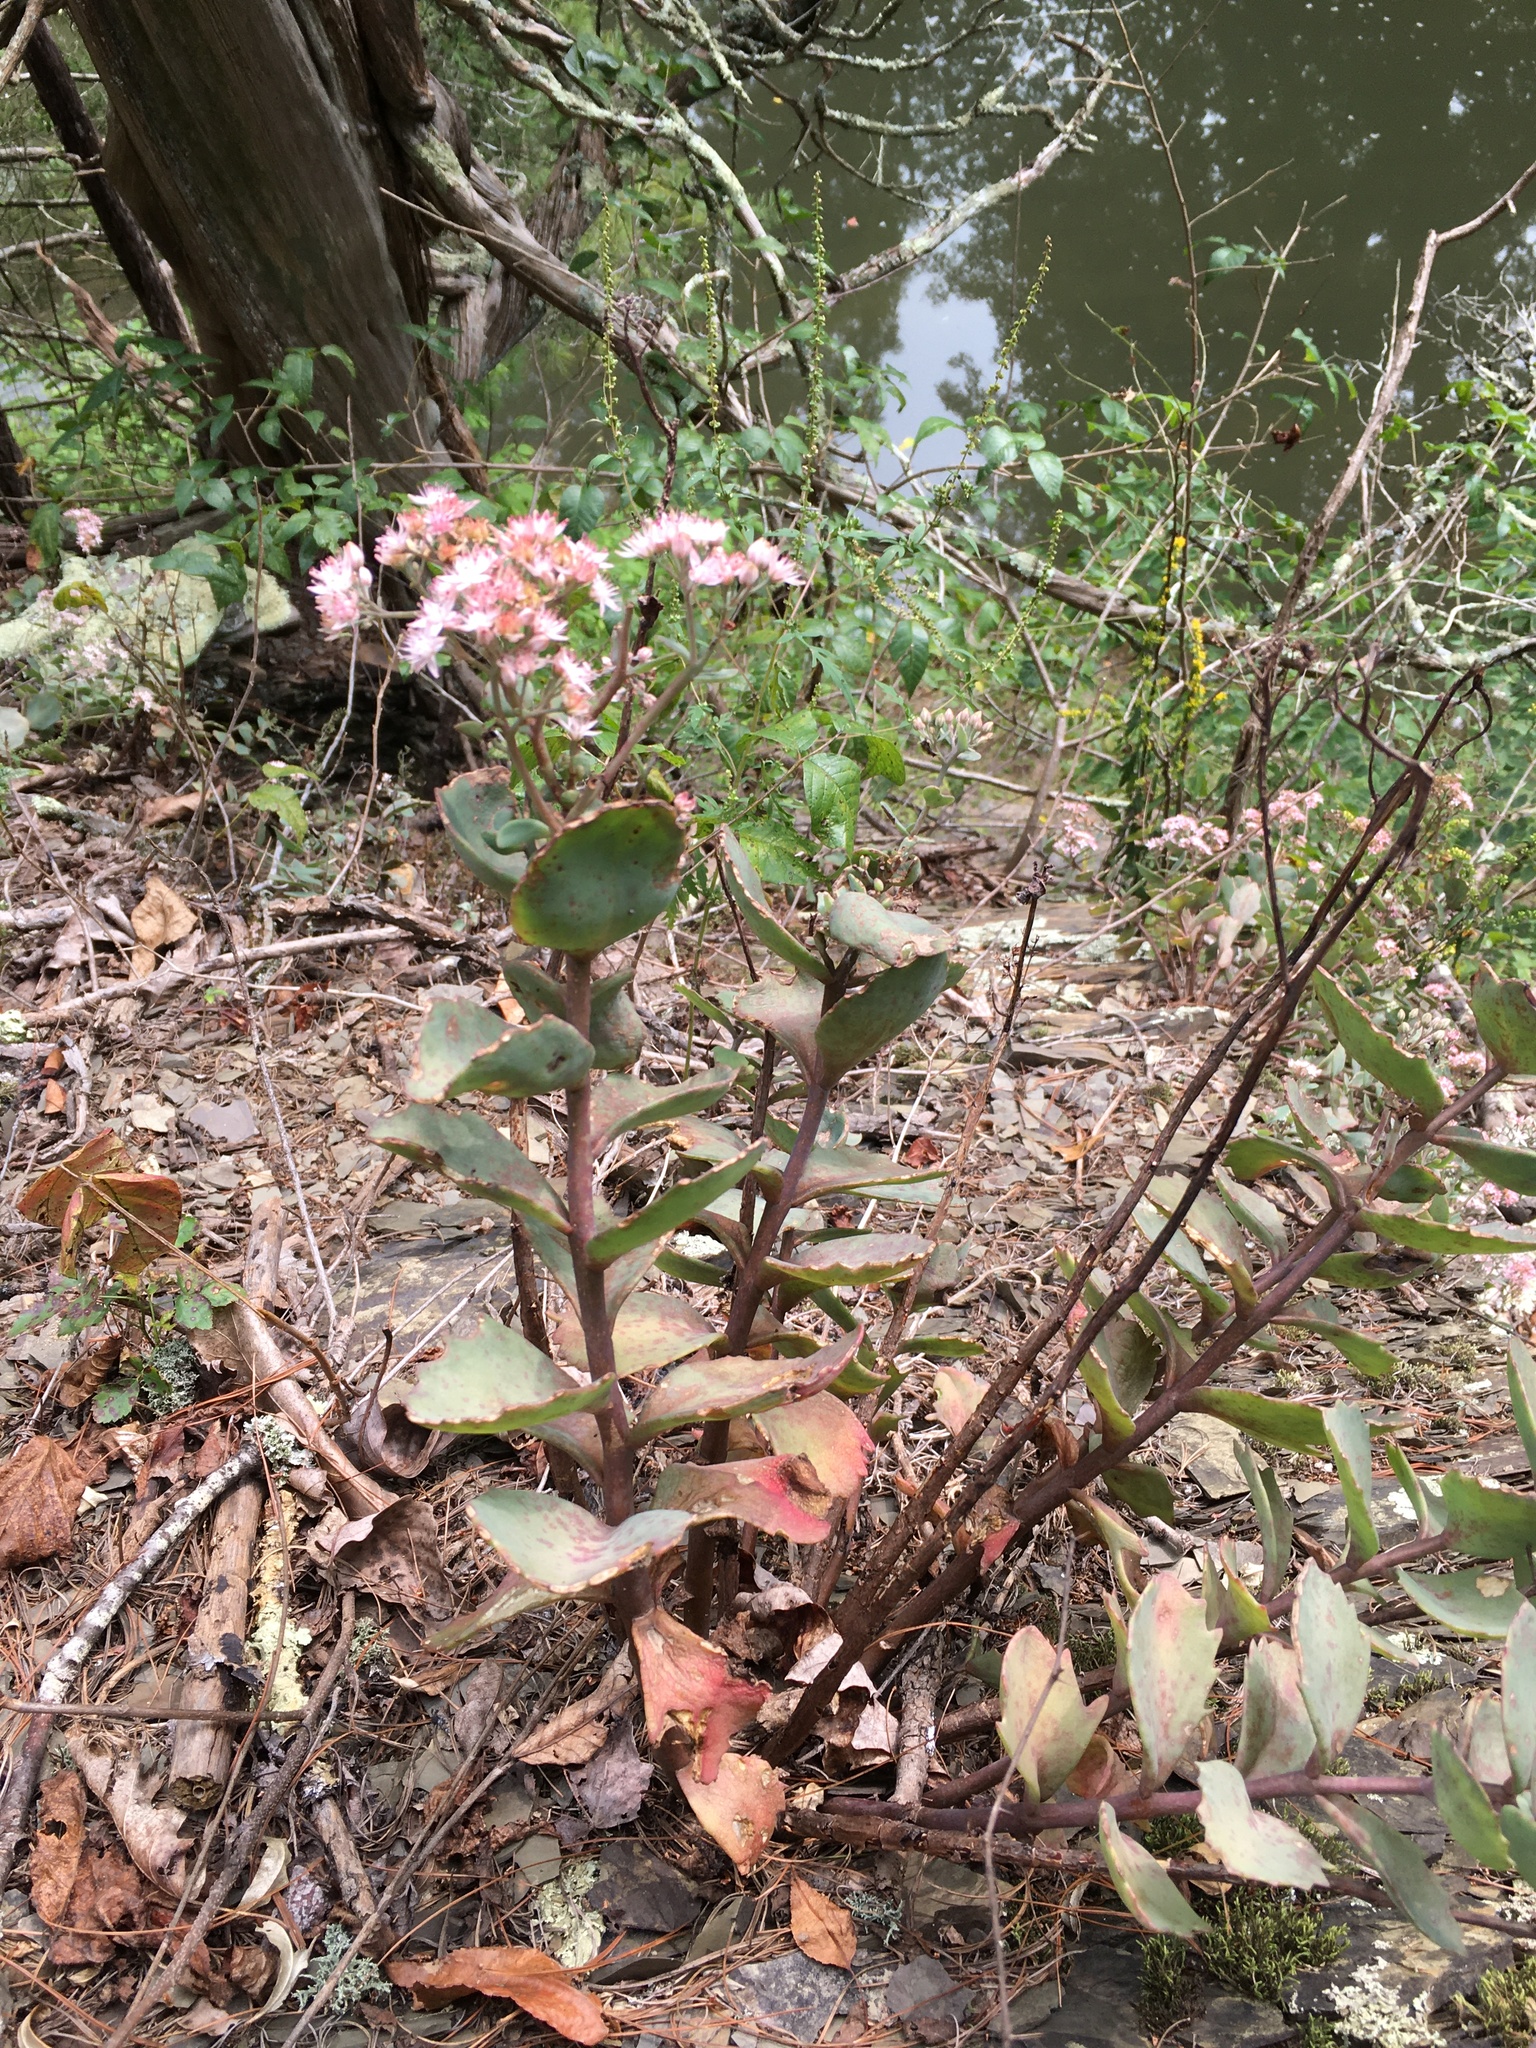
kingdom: Plantae
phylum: Tracheophyta
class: Magnoliopsida
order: Saxifragales
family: Crassulaceae
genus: Hylotelephium
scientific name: Hylotelephium telephioides
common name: Allegheny stonecrop
